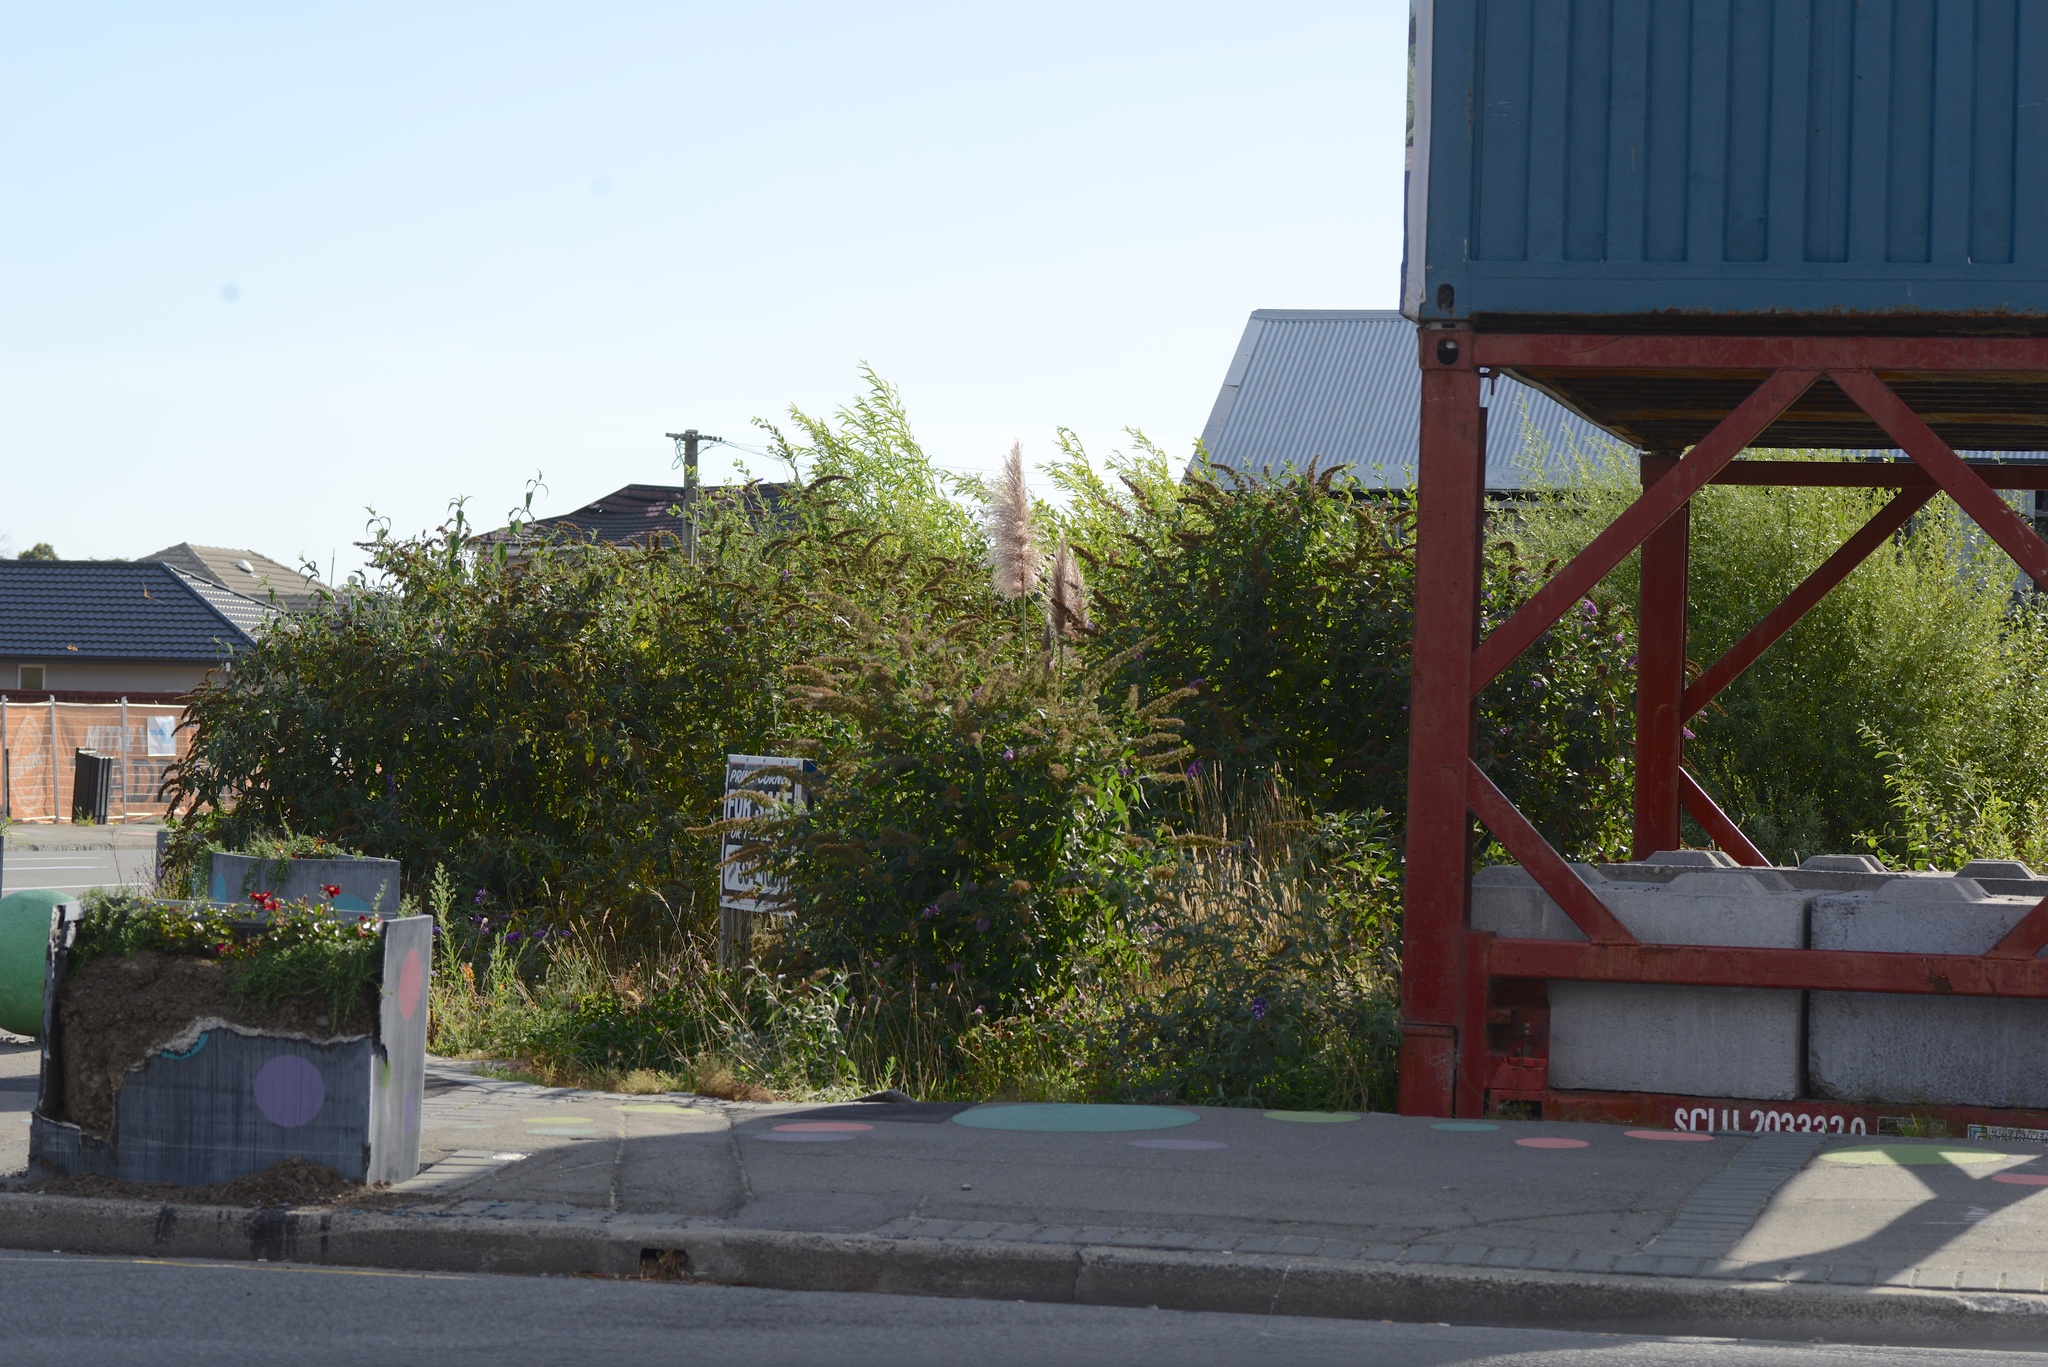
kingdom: Plantae
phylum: Tracheophyta
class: Magnoliopsida
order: Lamiales
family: Scrophulariaceae
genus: Buddleja
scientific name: Buddleja davidii
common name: Butterfly-bush
